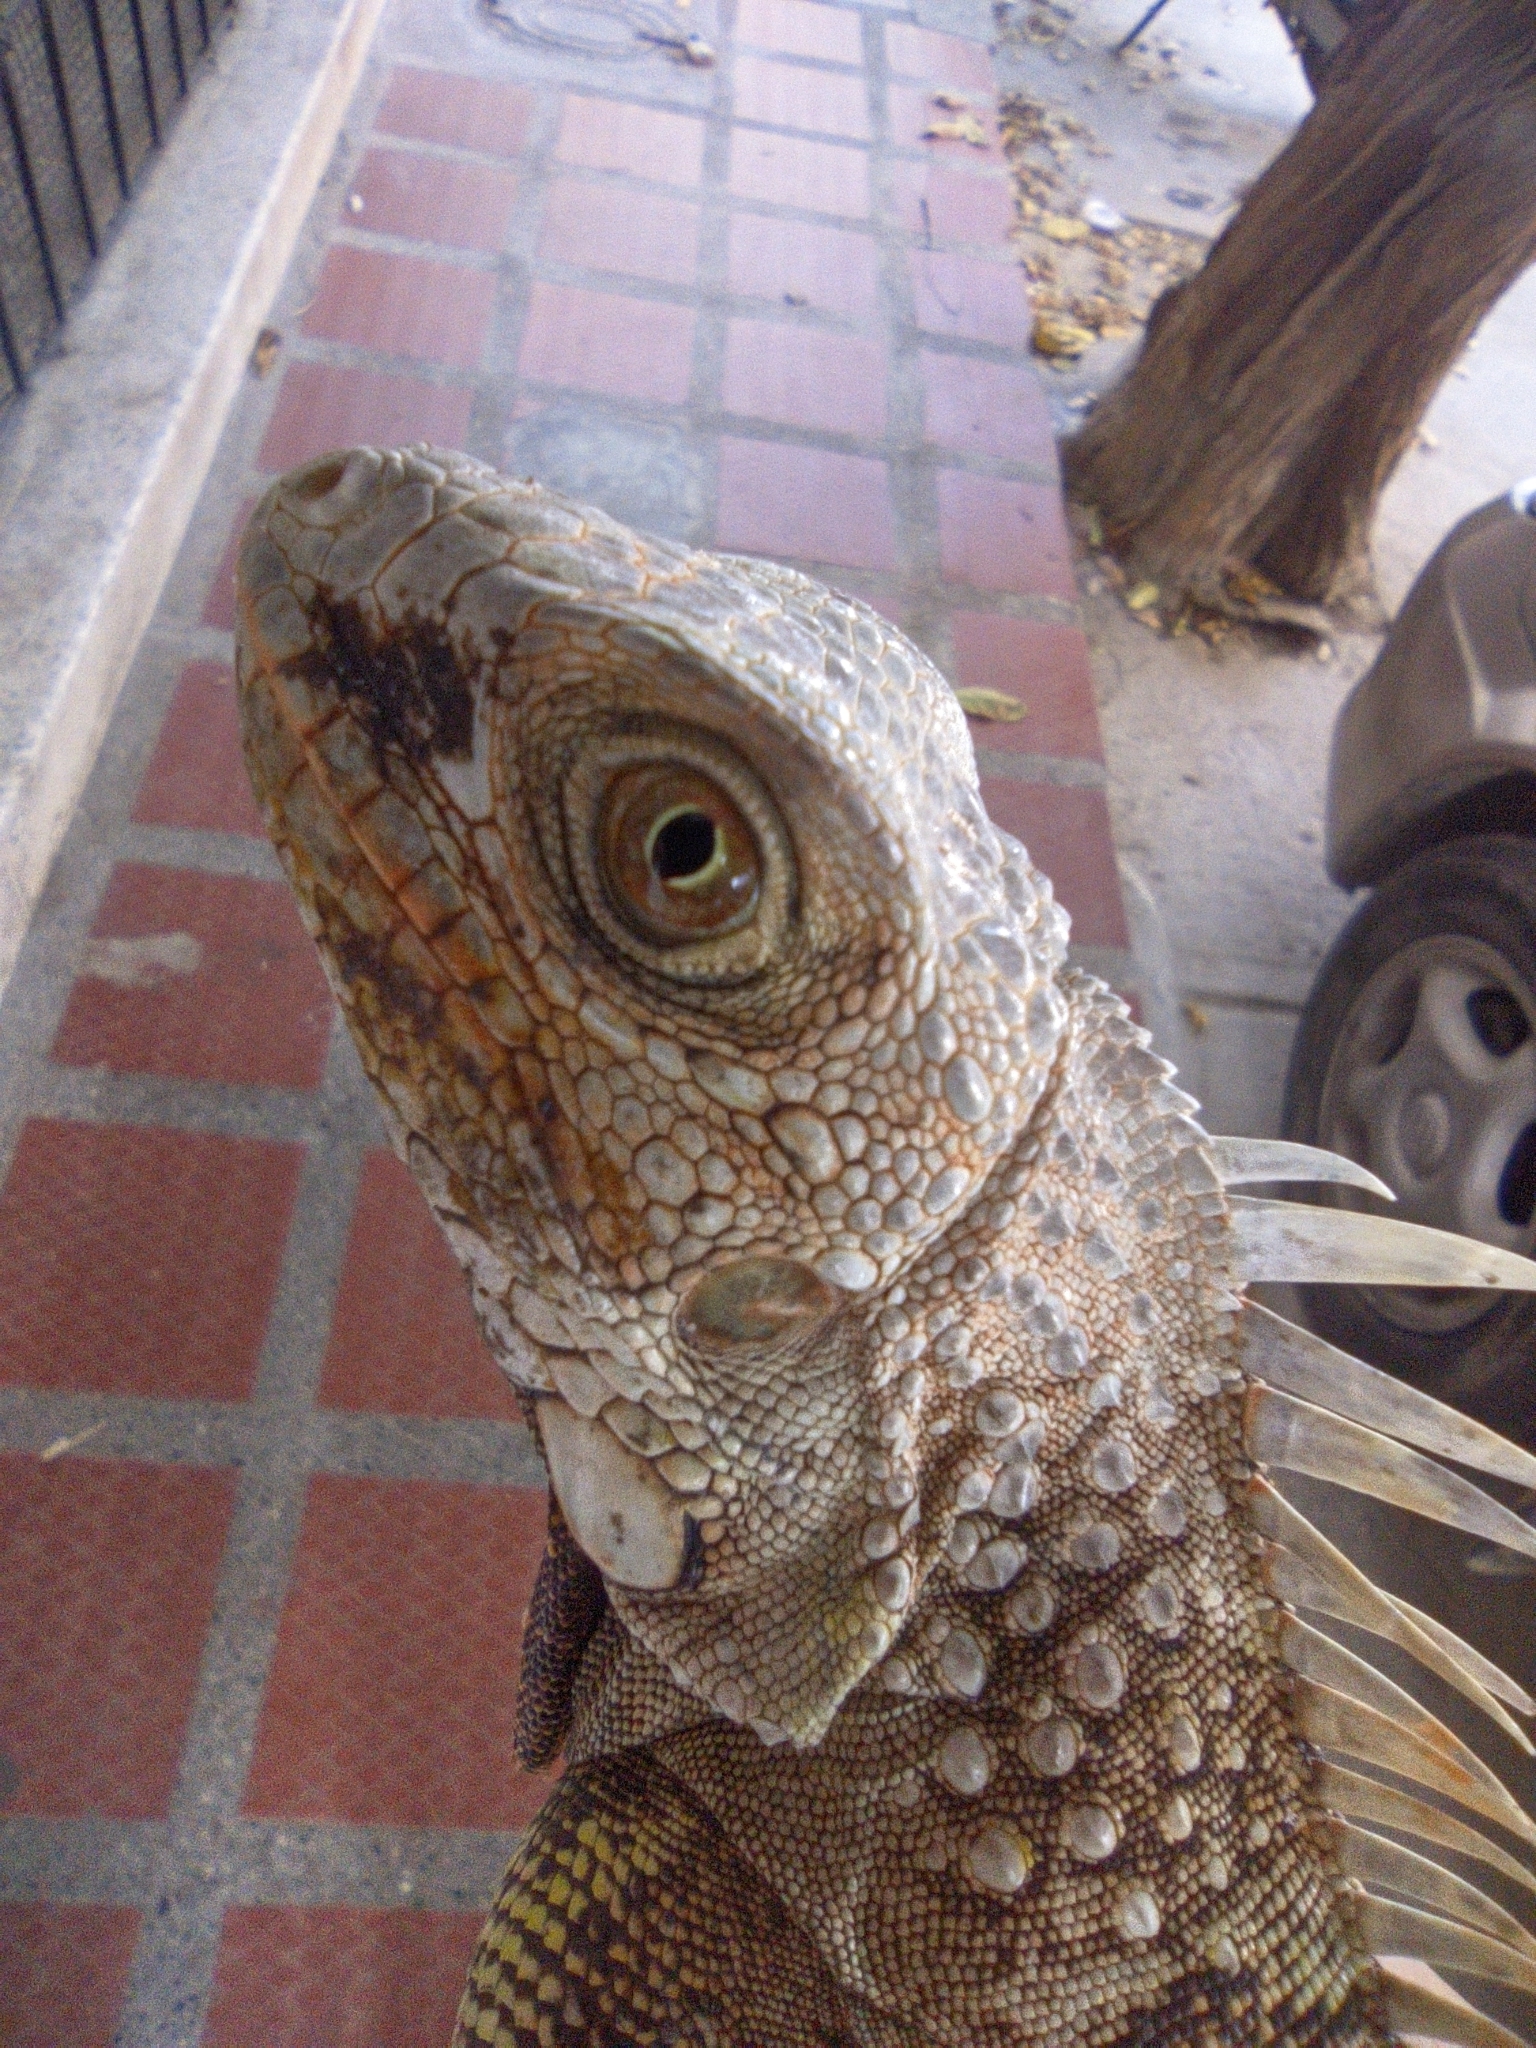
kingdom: Animalia
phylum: Chordata
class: Squamata
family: Iguanidae
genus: Iguana
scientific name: Iguana iguana
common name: Green iguana
